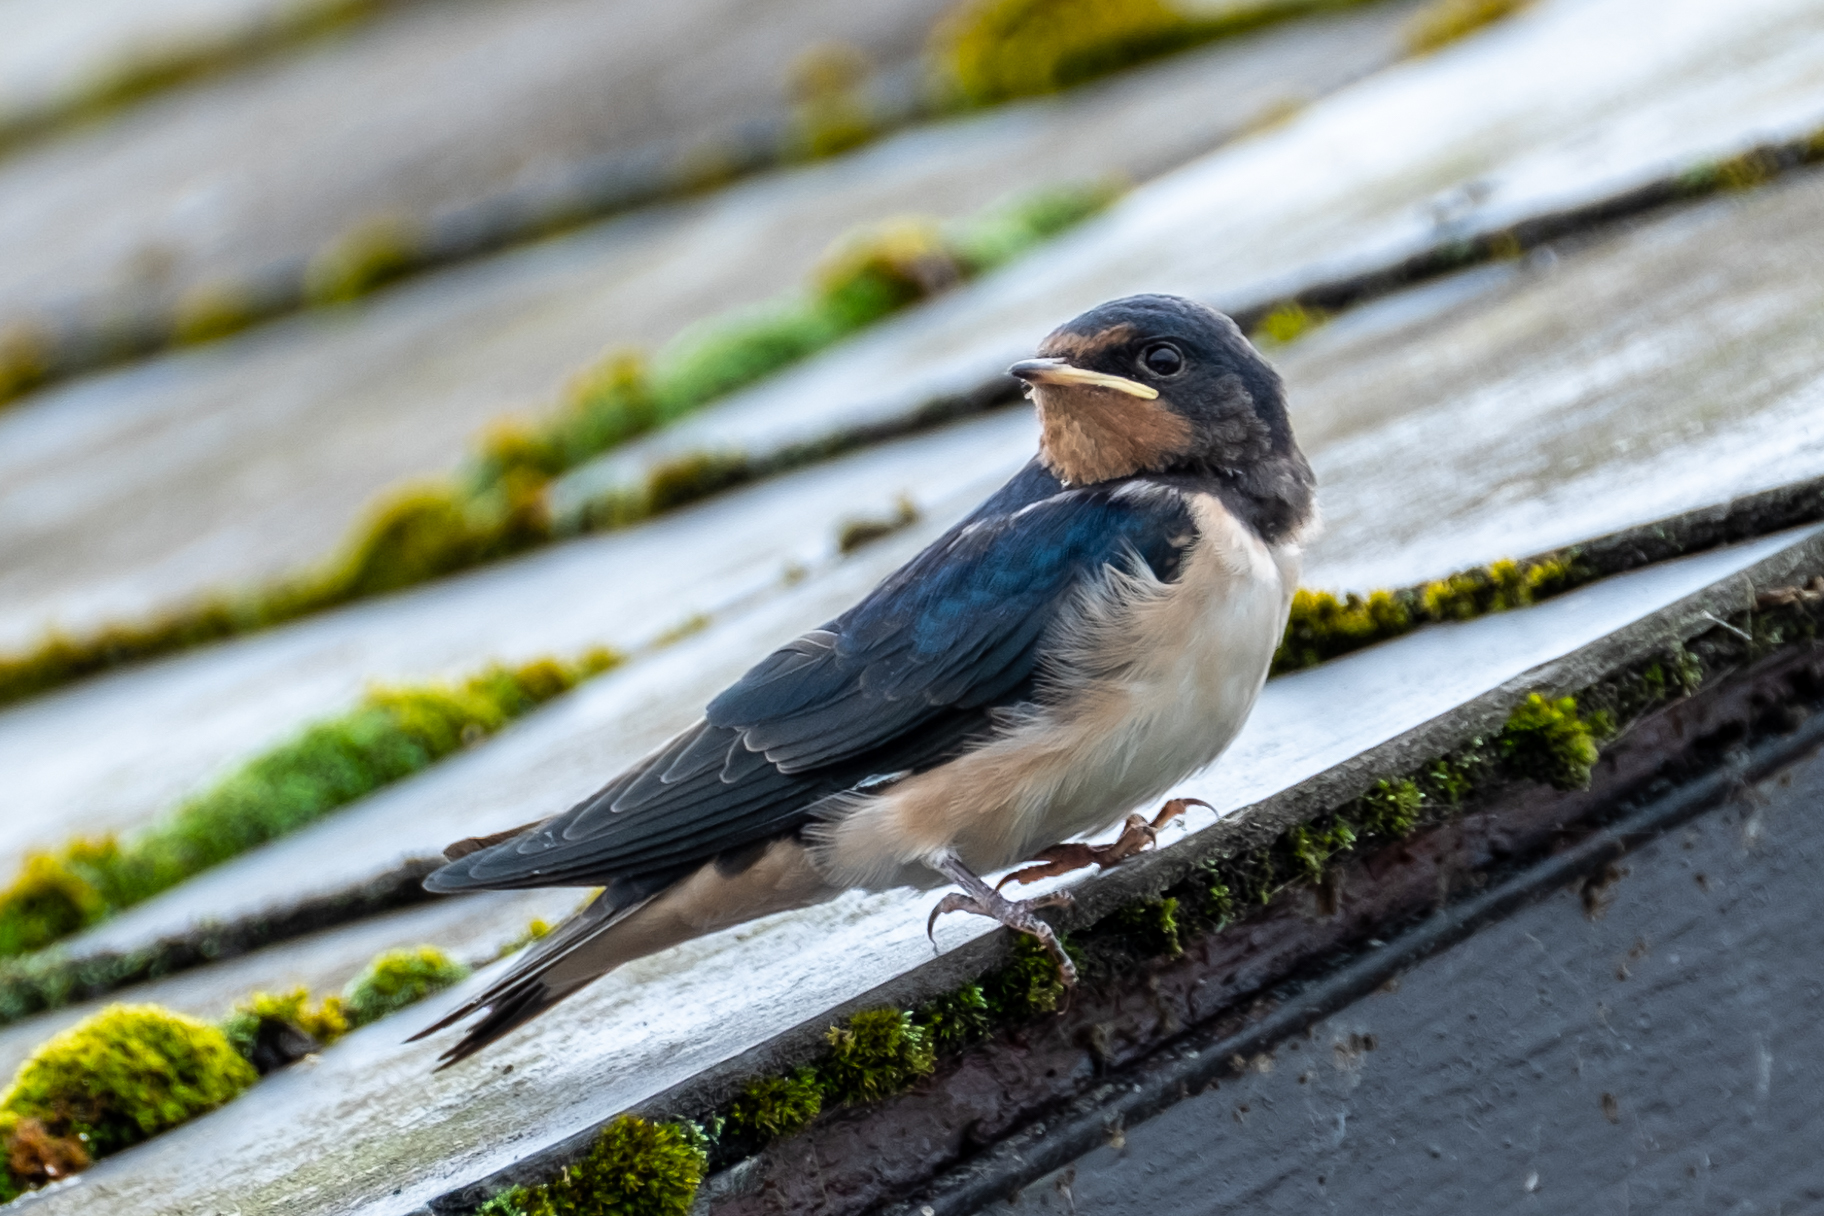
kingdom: Animalia
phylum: Chordata
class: Aves
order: Passeriformes
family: Hirundinidae
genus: Hirundo
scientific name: Hirundo rustica
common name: Barn swallow
